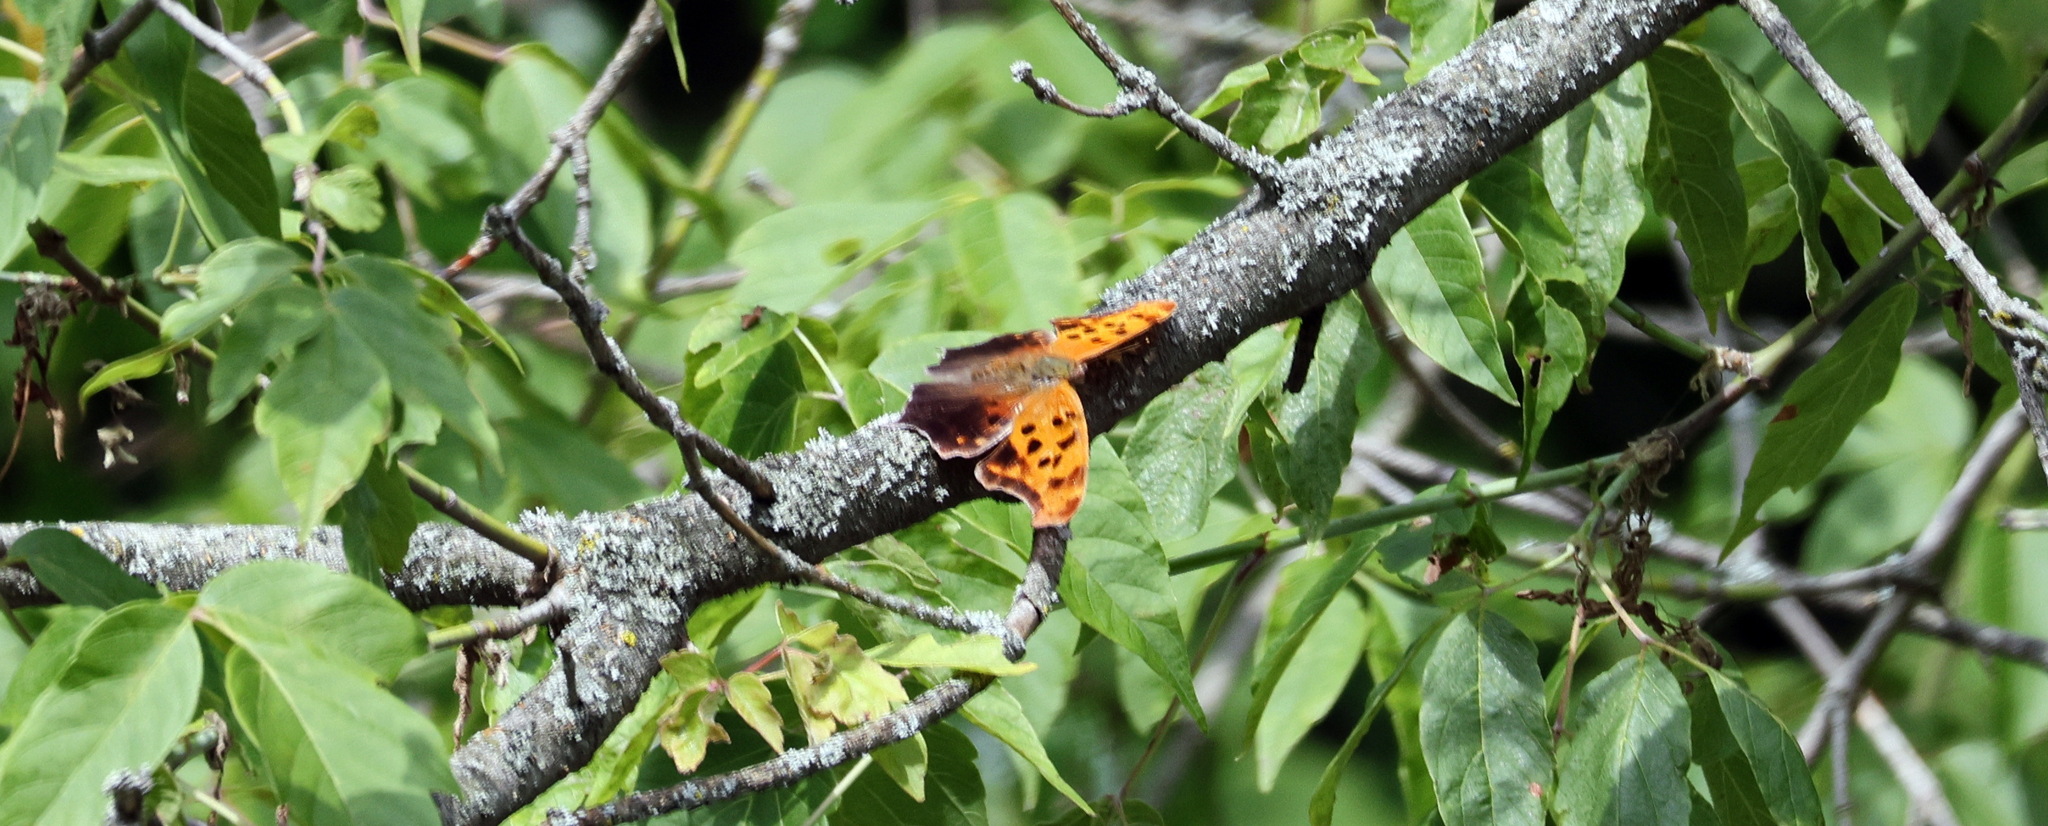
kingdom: Animalia
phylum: Arthropoda
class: Insecta
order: Lepidoptera
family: Nymphalidae
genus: Polygonia
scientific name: Polygonia interrogationis
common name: Question mark
